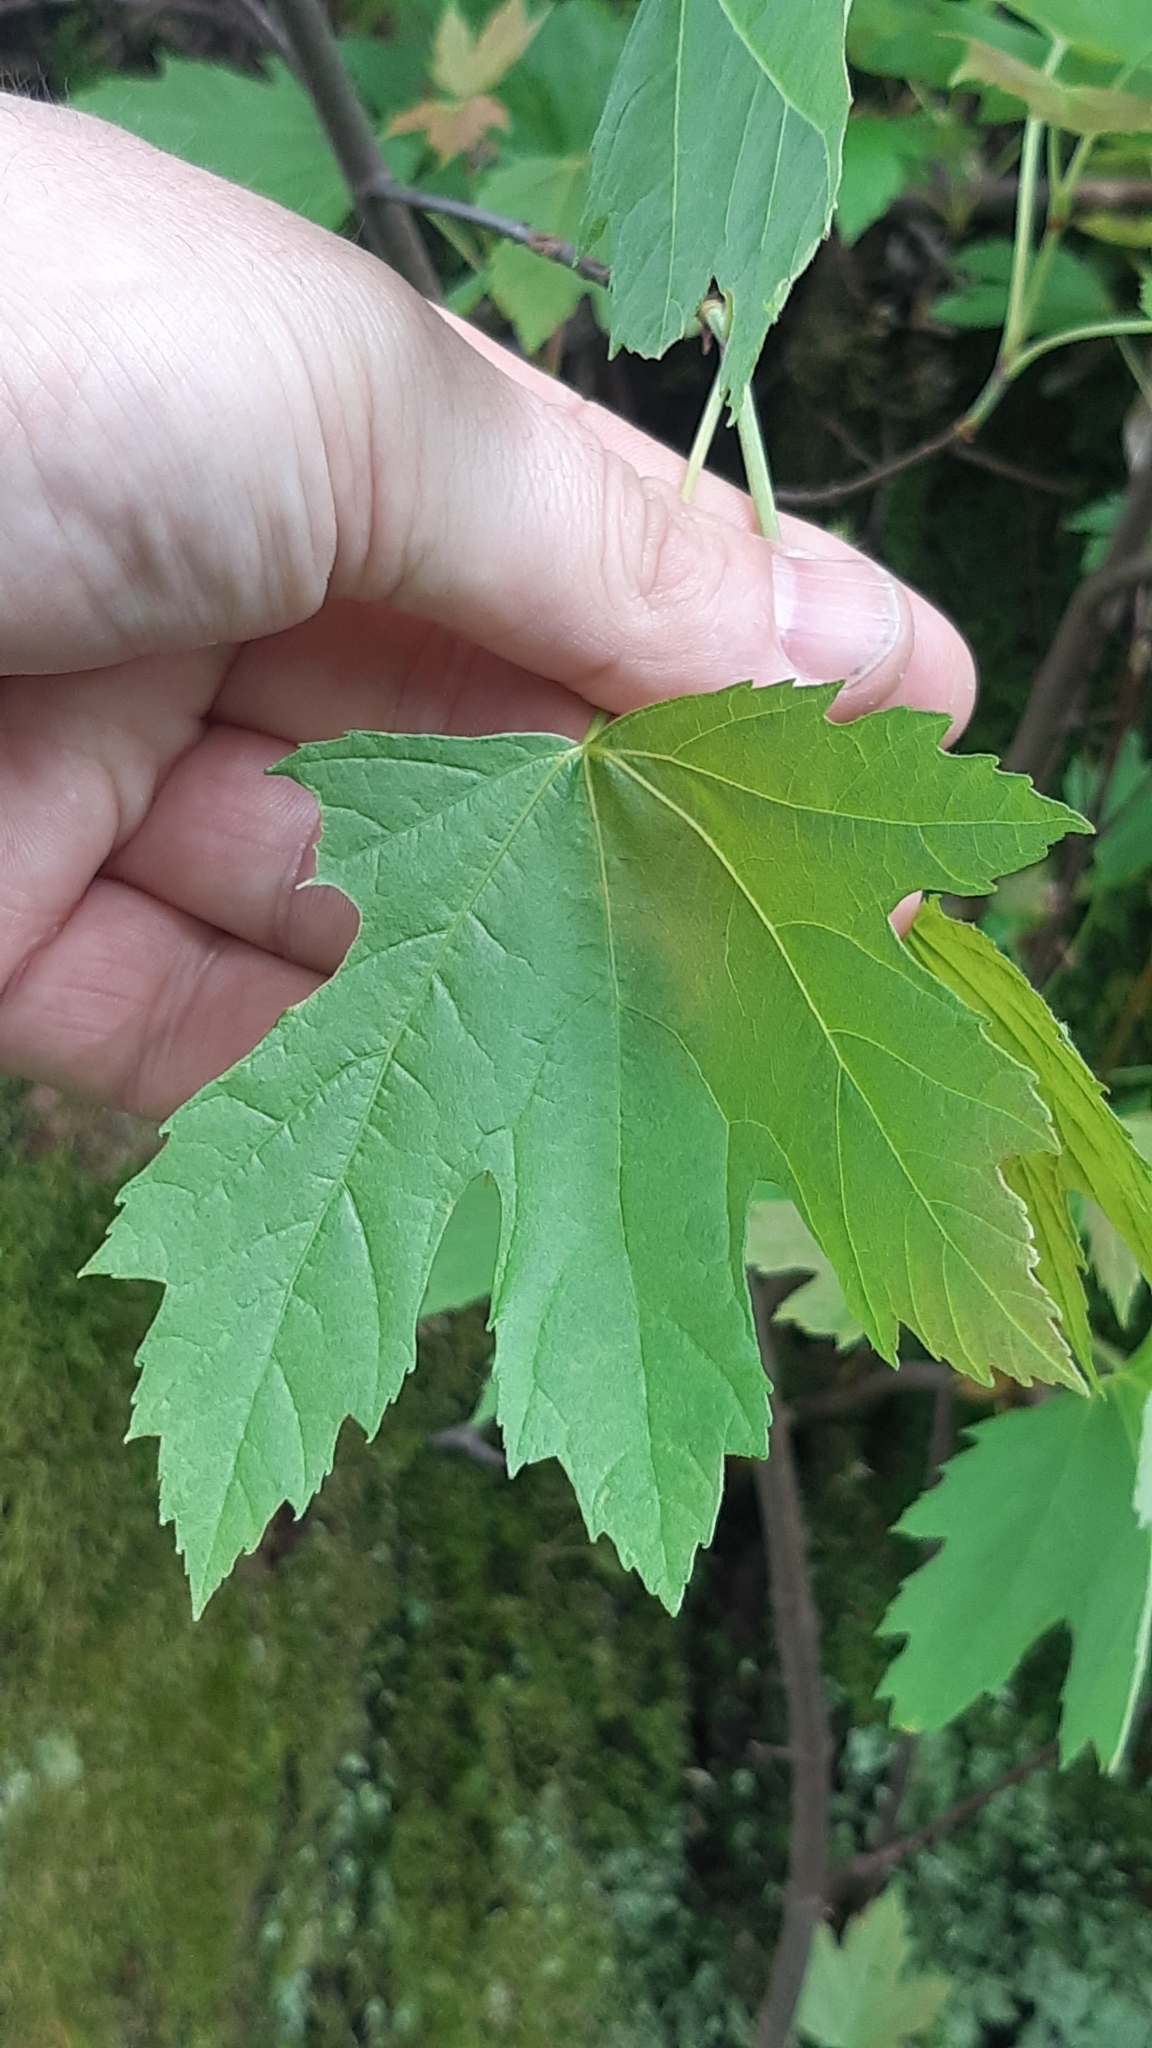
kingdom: Plantae
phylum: Tracheophyta
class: Magnoliopsida
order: Sapindales
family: Sapindaceae
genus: Acer
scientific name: Acer saccharinum
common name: Silver maple
